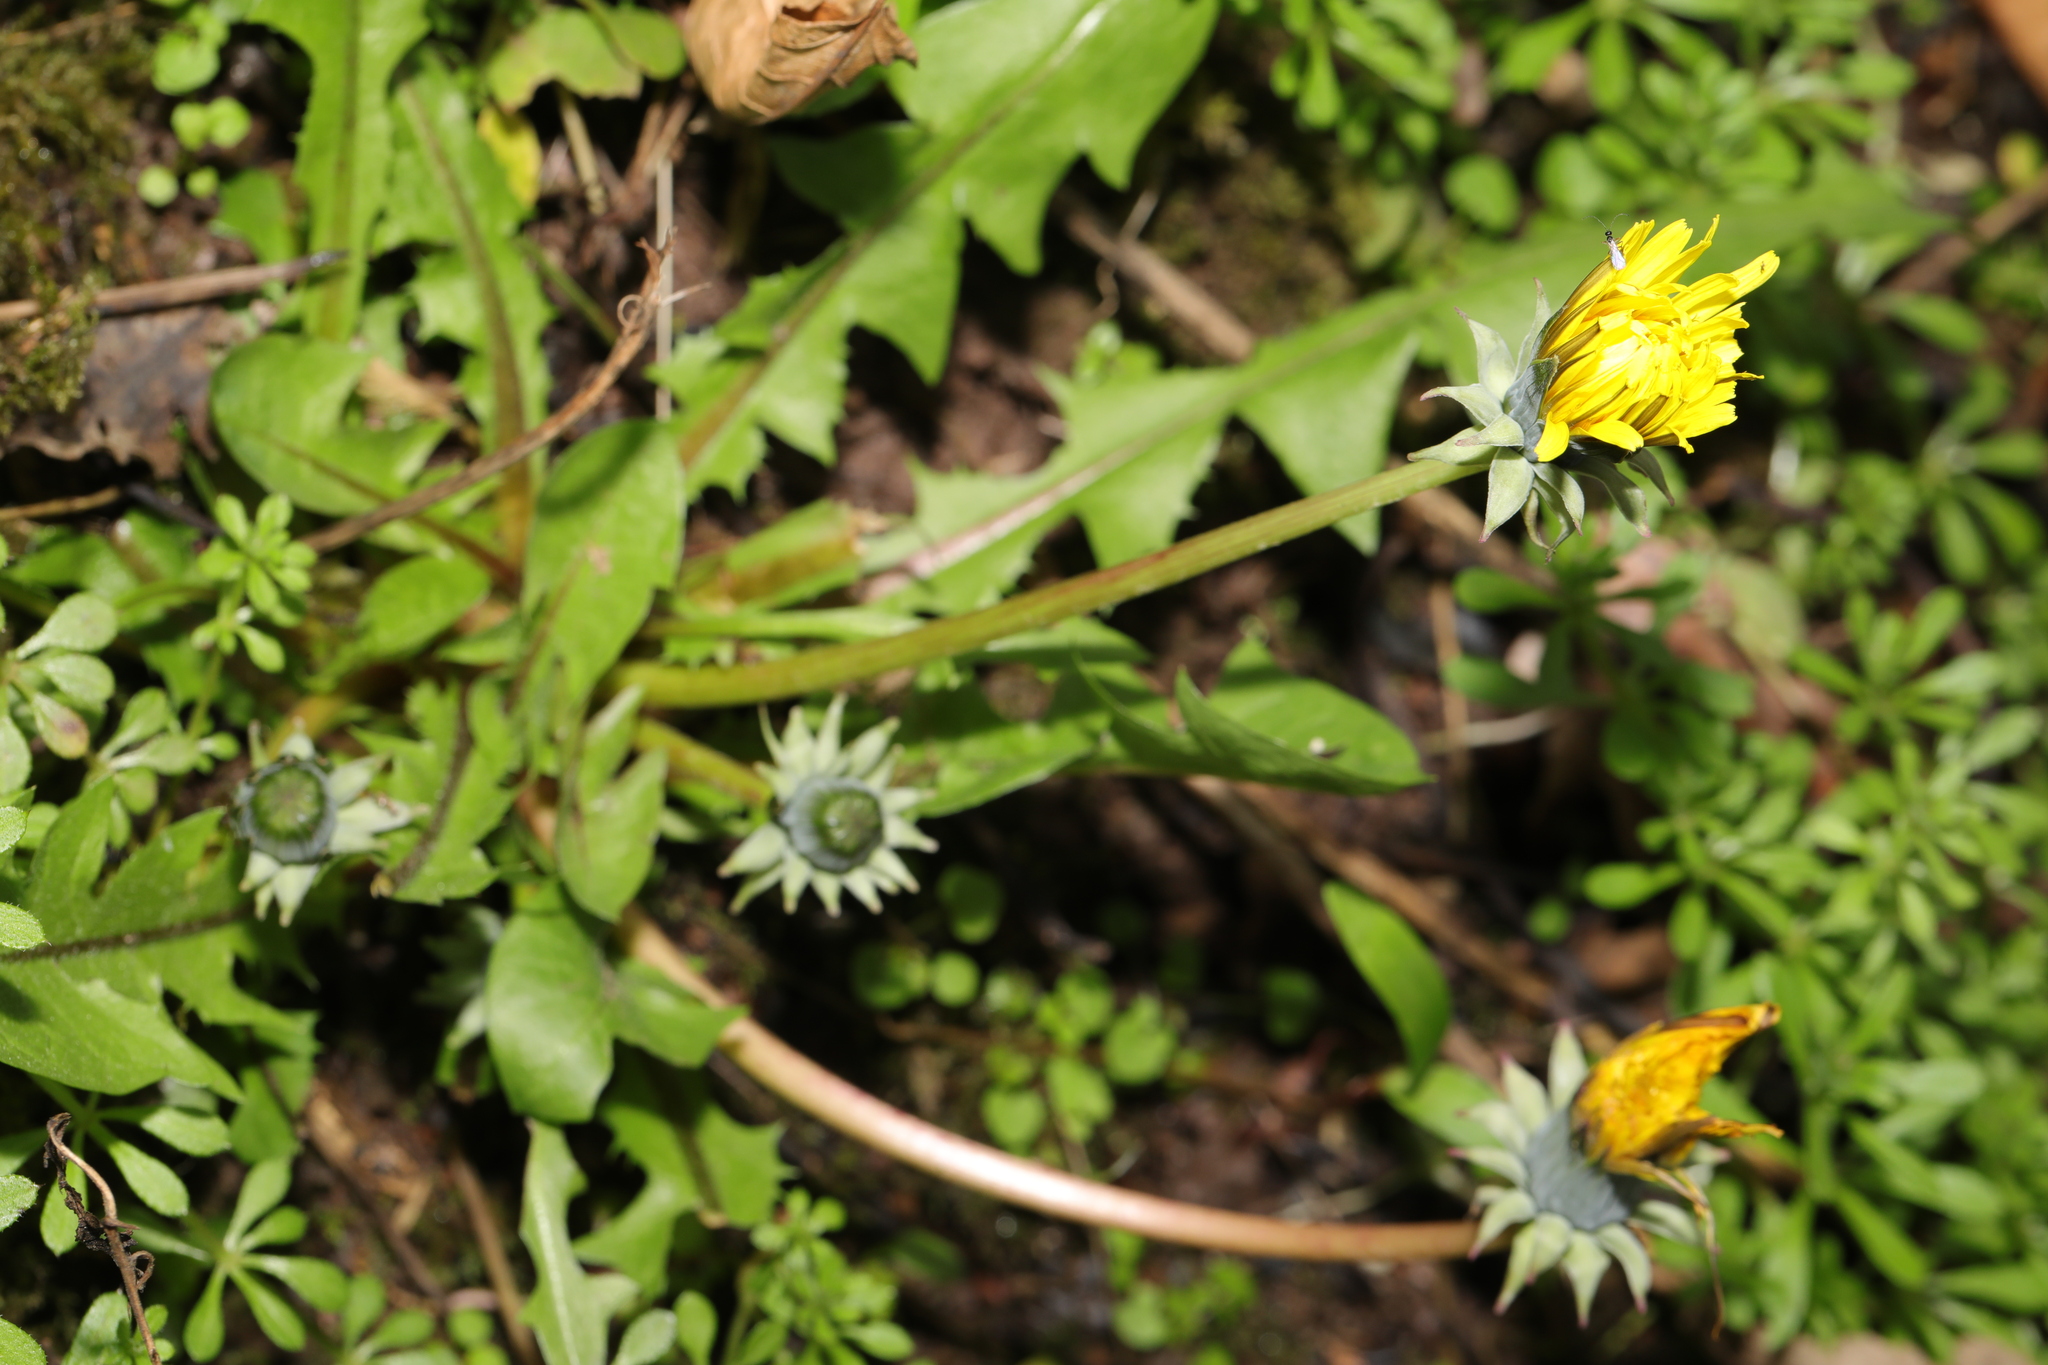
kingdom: Plantae
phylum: Tracheophyta
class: Magnoliopsida
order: Asterales
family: Asteraceae
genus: Taraxacum
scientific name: Taraxacum officinale
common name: Common dandelion
